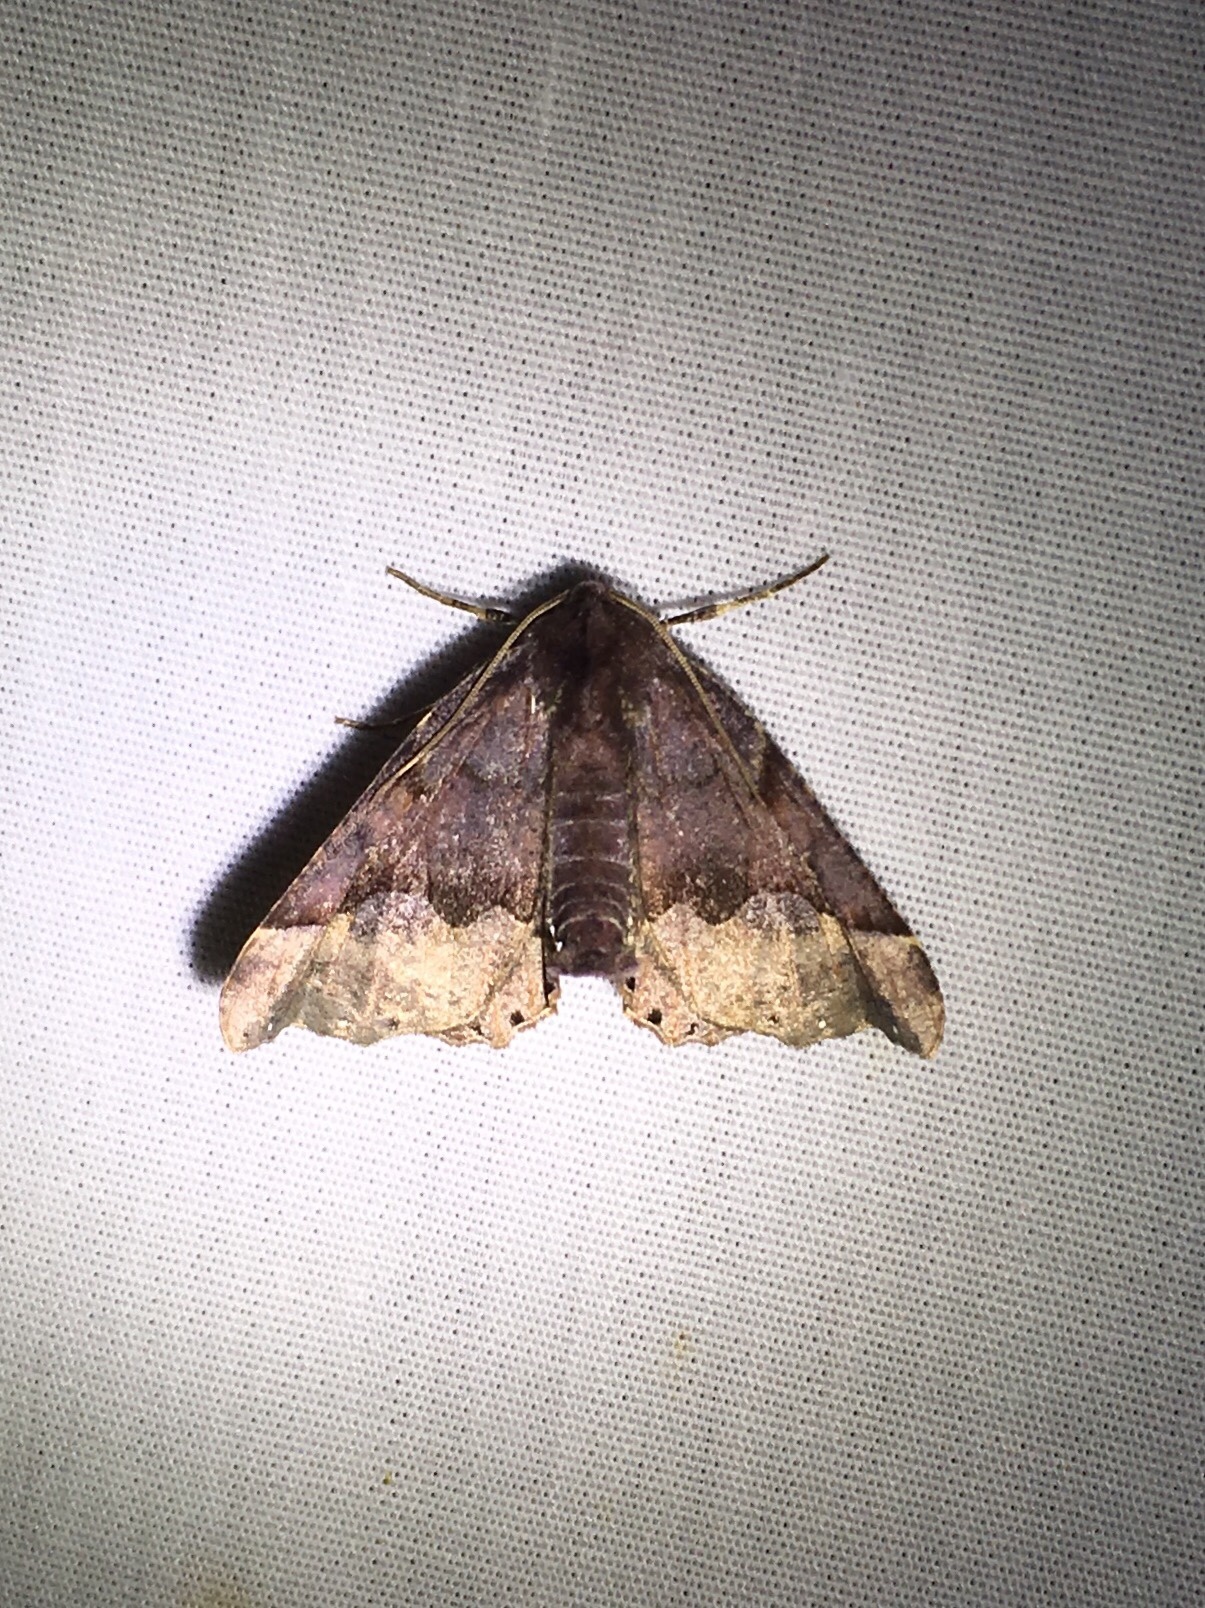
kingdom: Animalia
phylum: Arthropoda
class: Insecta
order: Lepidoptera
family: Geometridae
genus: Pero
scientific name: Pero morrisonaria
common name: Morrison's pero
